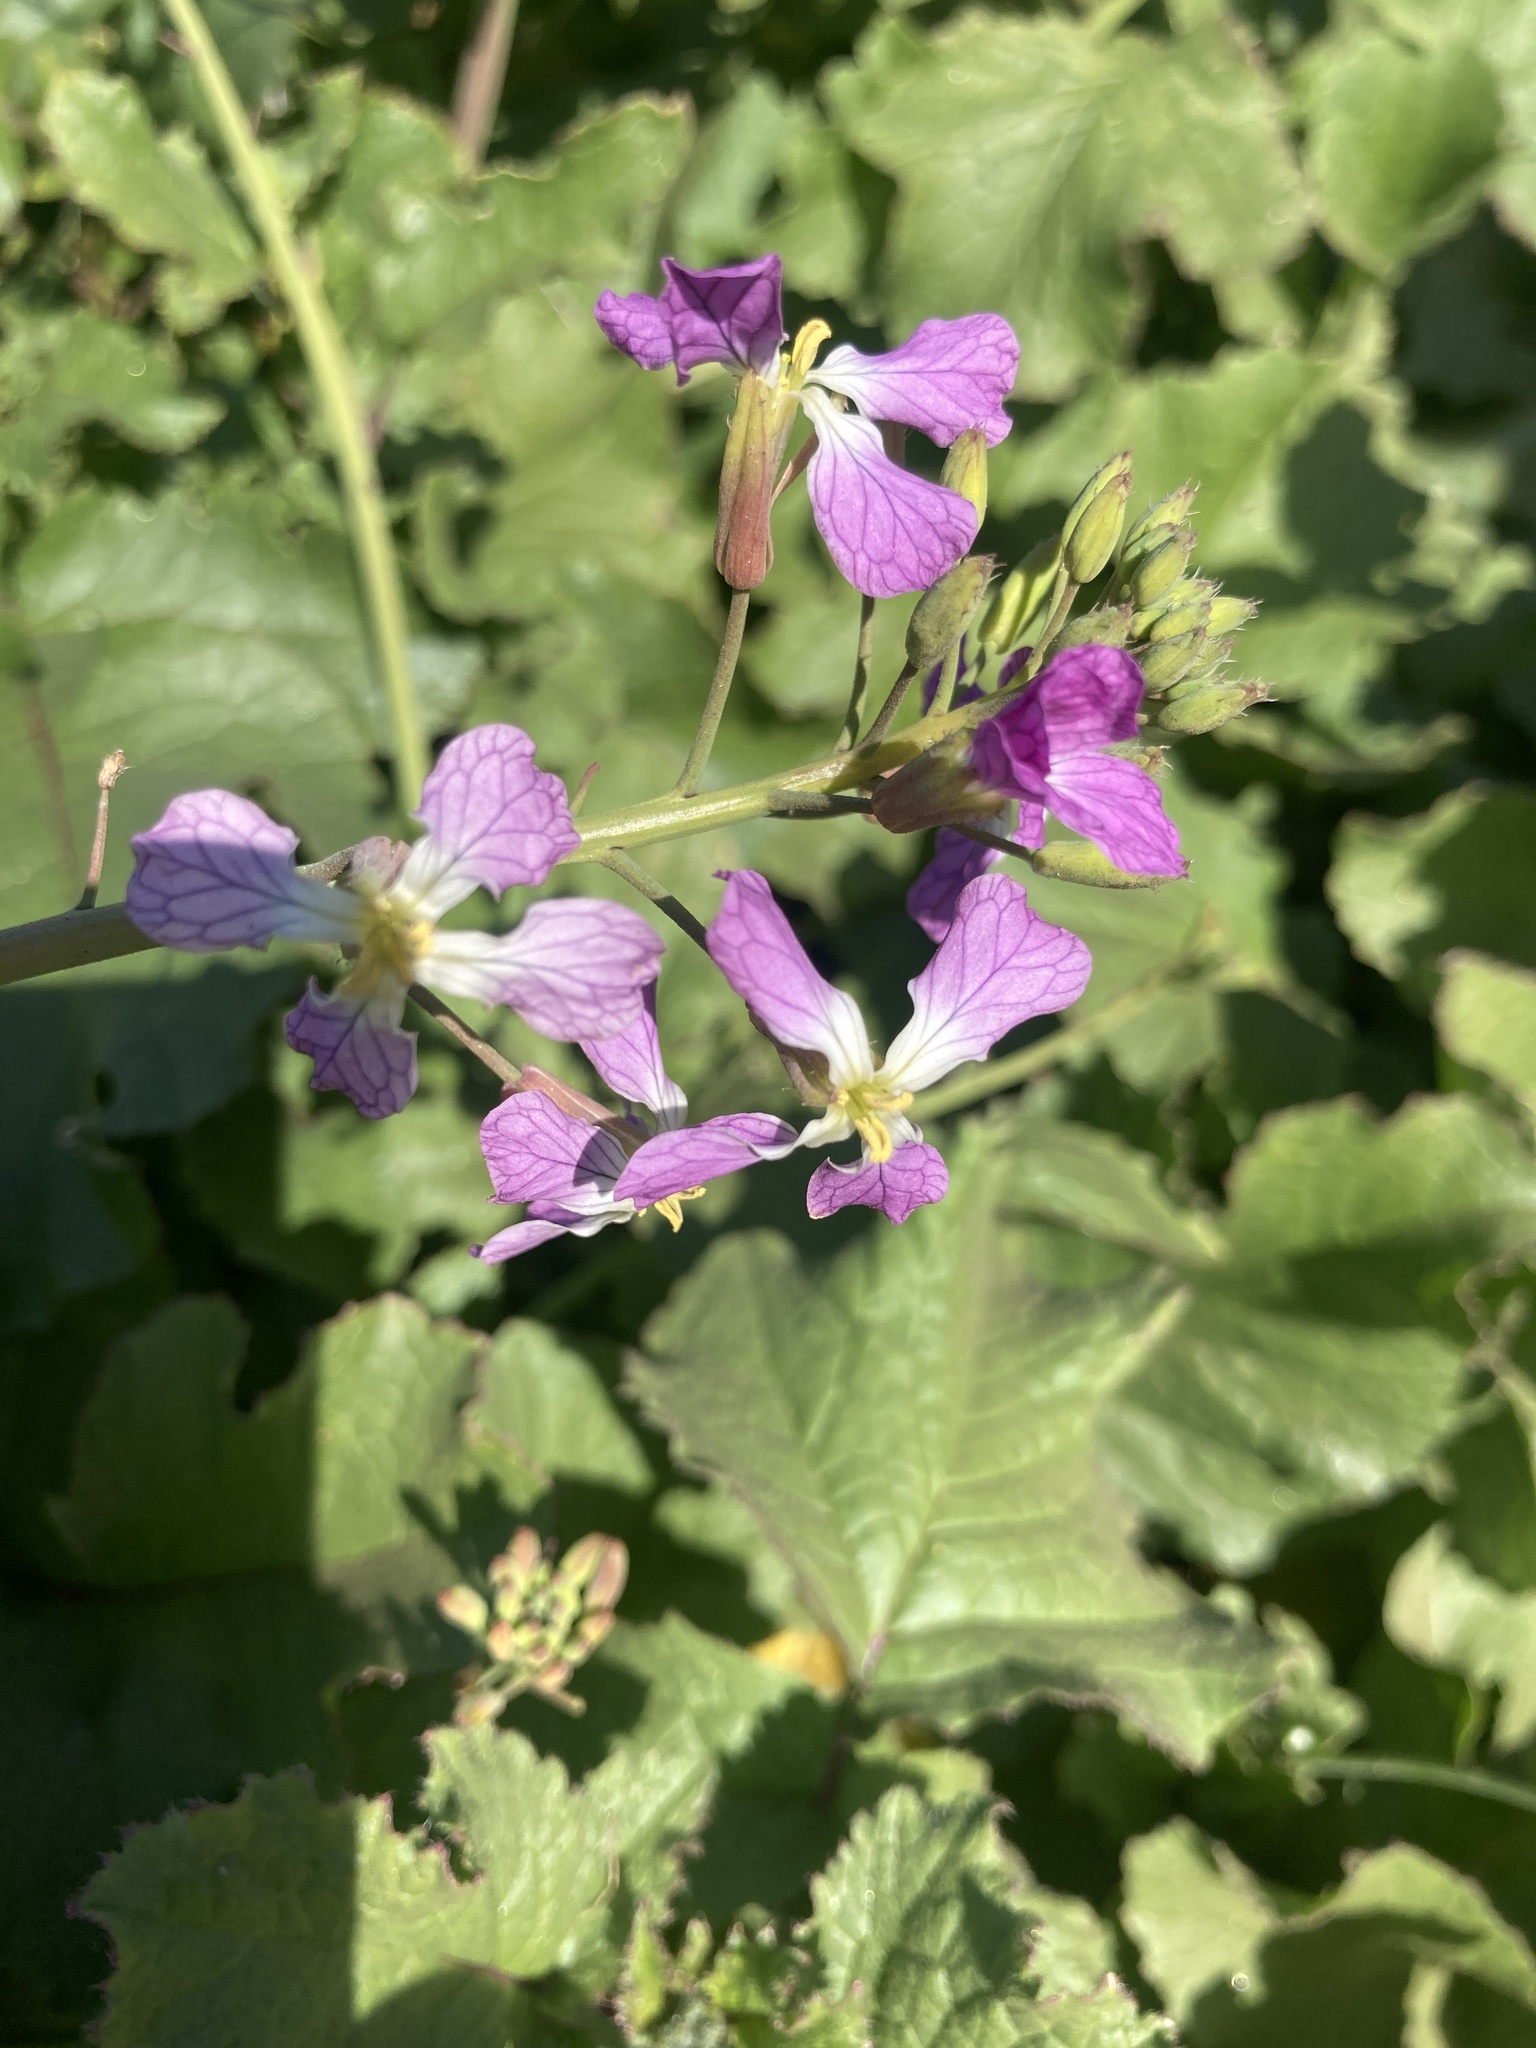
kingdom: Plantae
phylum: Tracheophyta
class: Magnoliopsida
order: Brassicales
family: Brassicaceae
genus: Raphanus
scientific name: Raphanus sativus
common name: Cultivated radish
